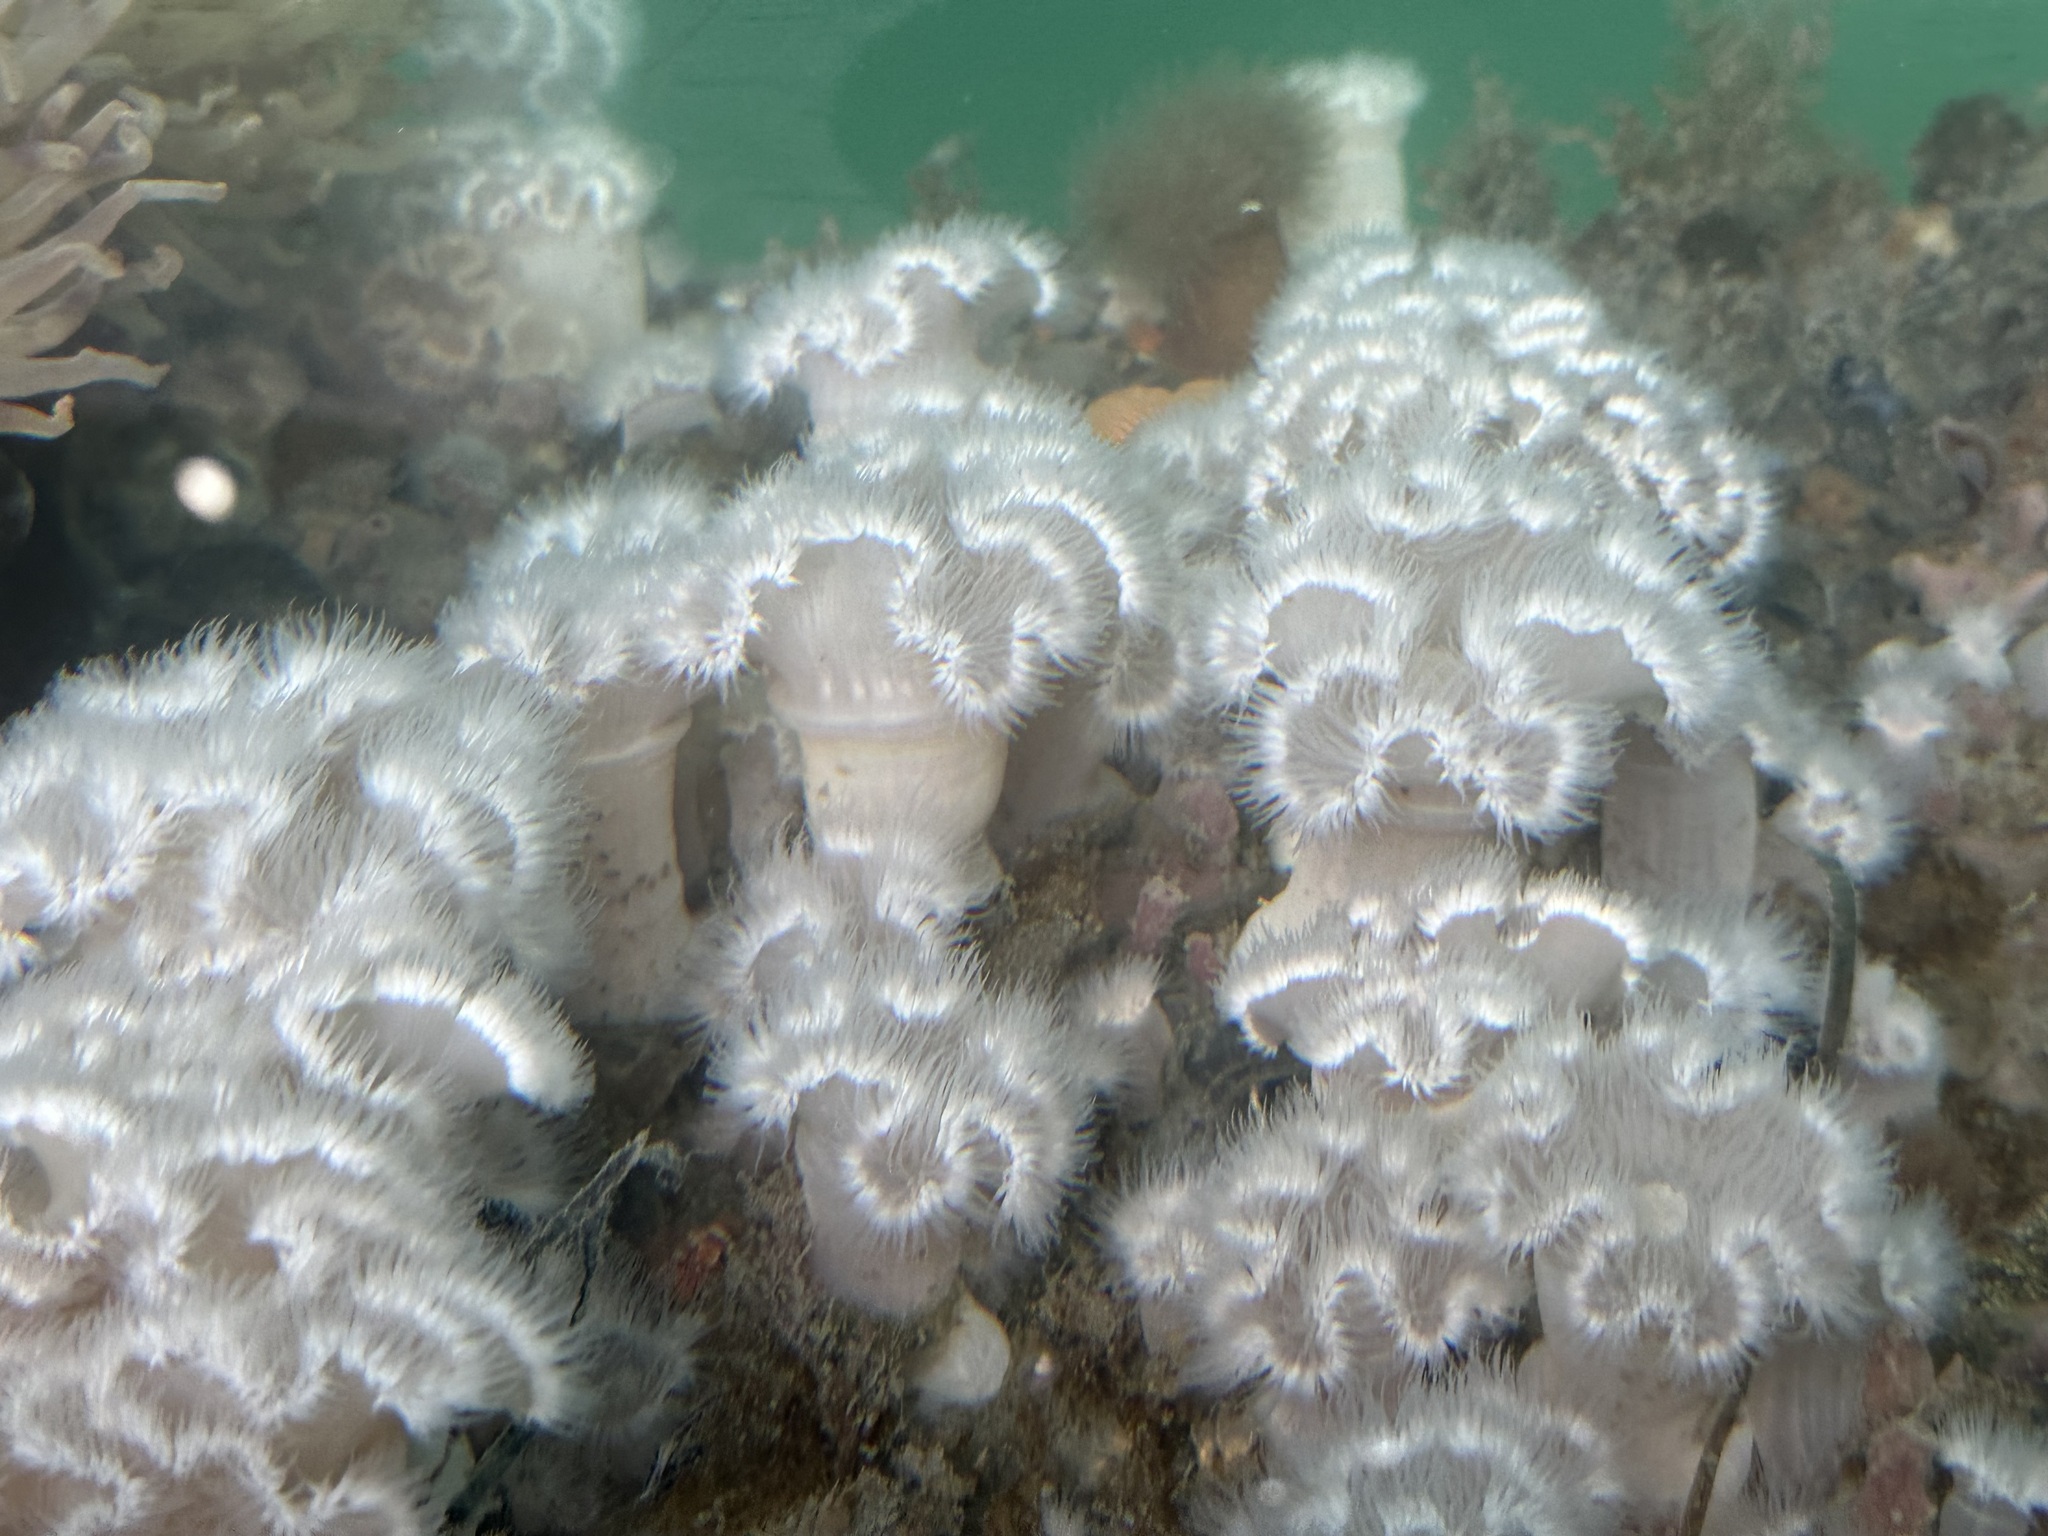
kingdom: Animalia
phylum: Cnidaria
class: Anthozoa
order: Actiniaria
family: Metridiidae
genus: Metridium
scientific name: Metridium senile
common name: Clonal plumose anemone
